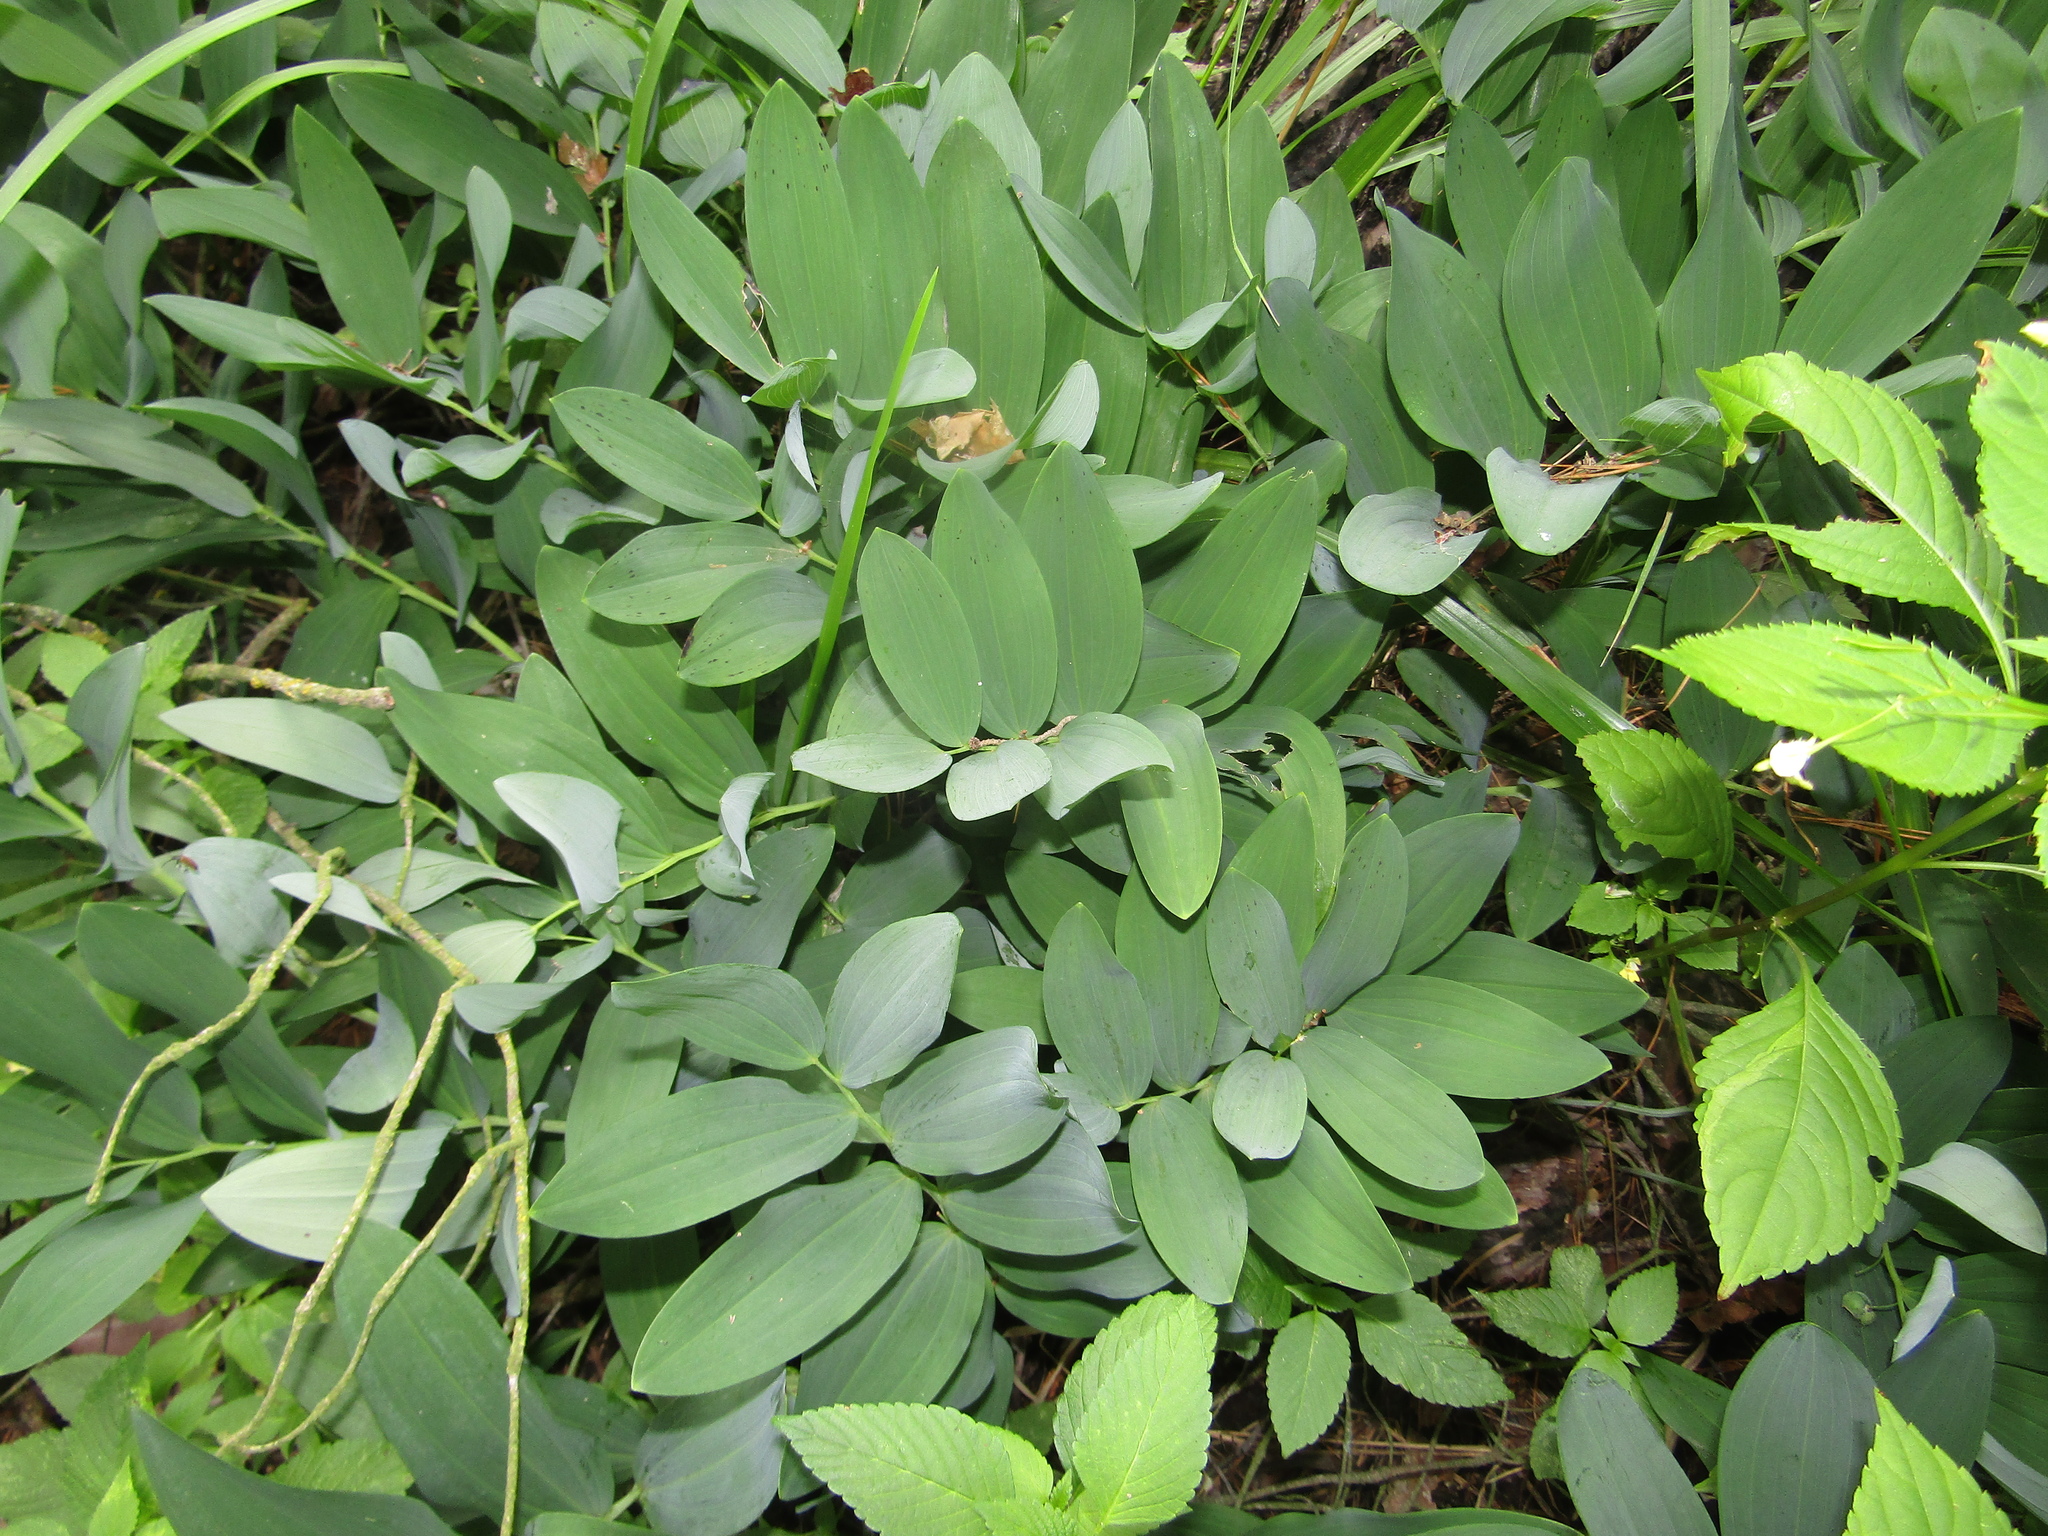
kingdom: Plantae
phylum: Tracheophyta
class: Liliopsida
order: Asparagales
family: Asparagaceae
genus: Polygonatum
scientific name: Polygonatum odoratum
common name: Angular solomon's-seal
